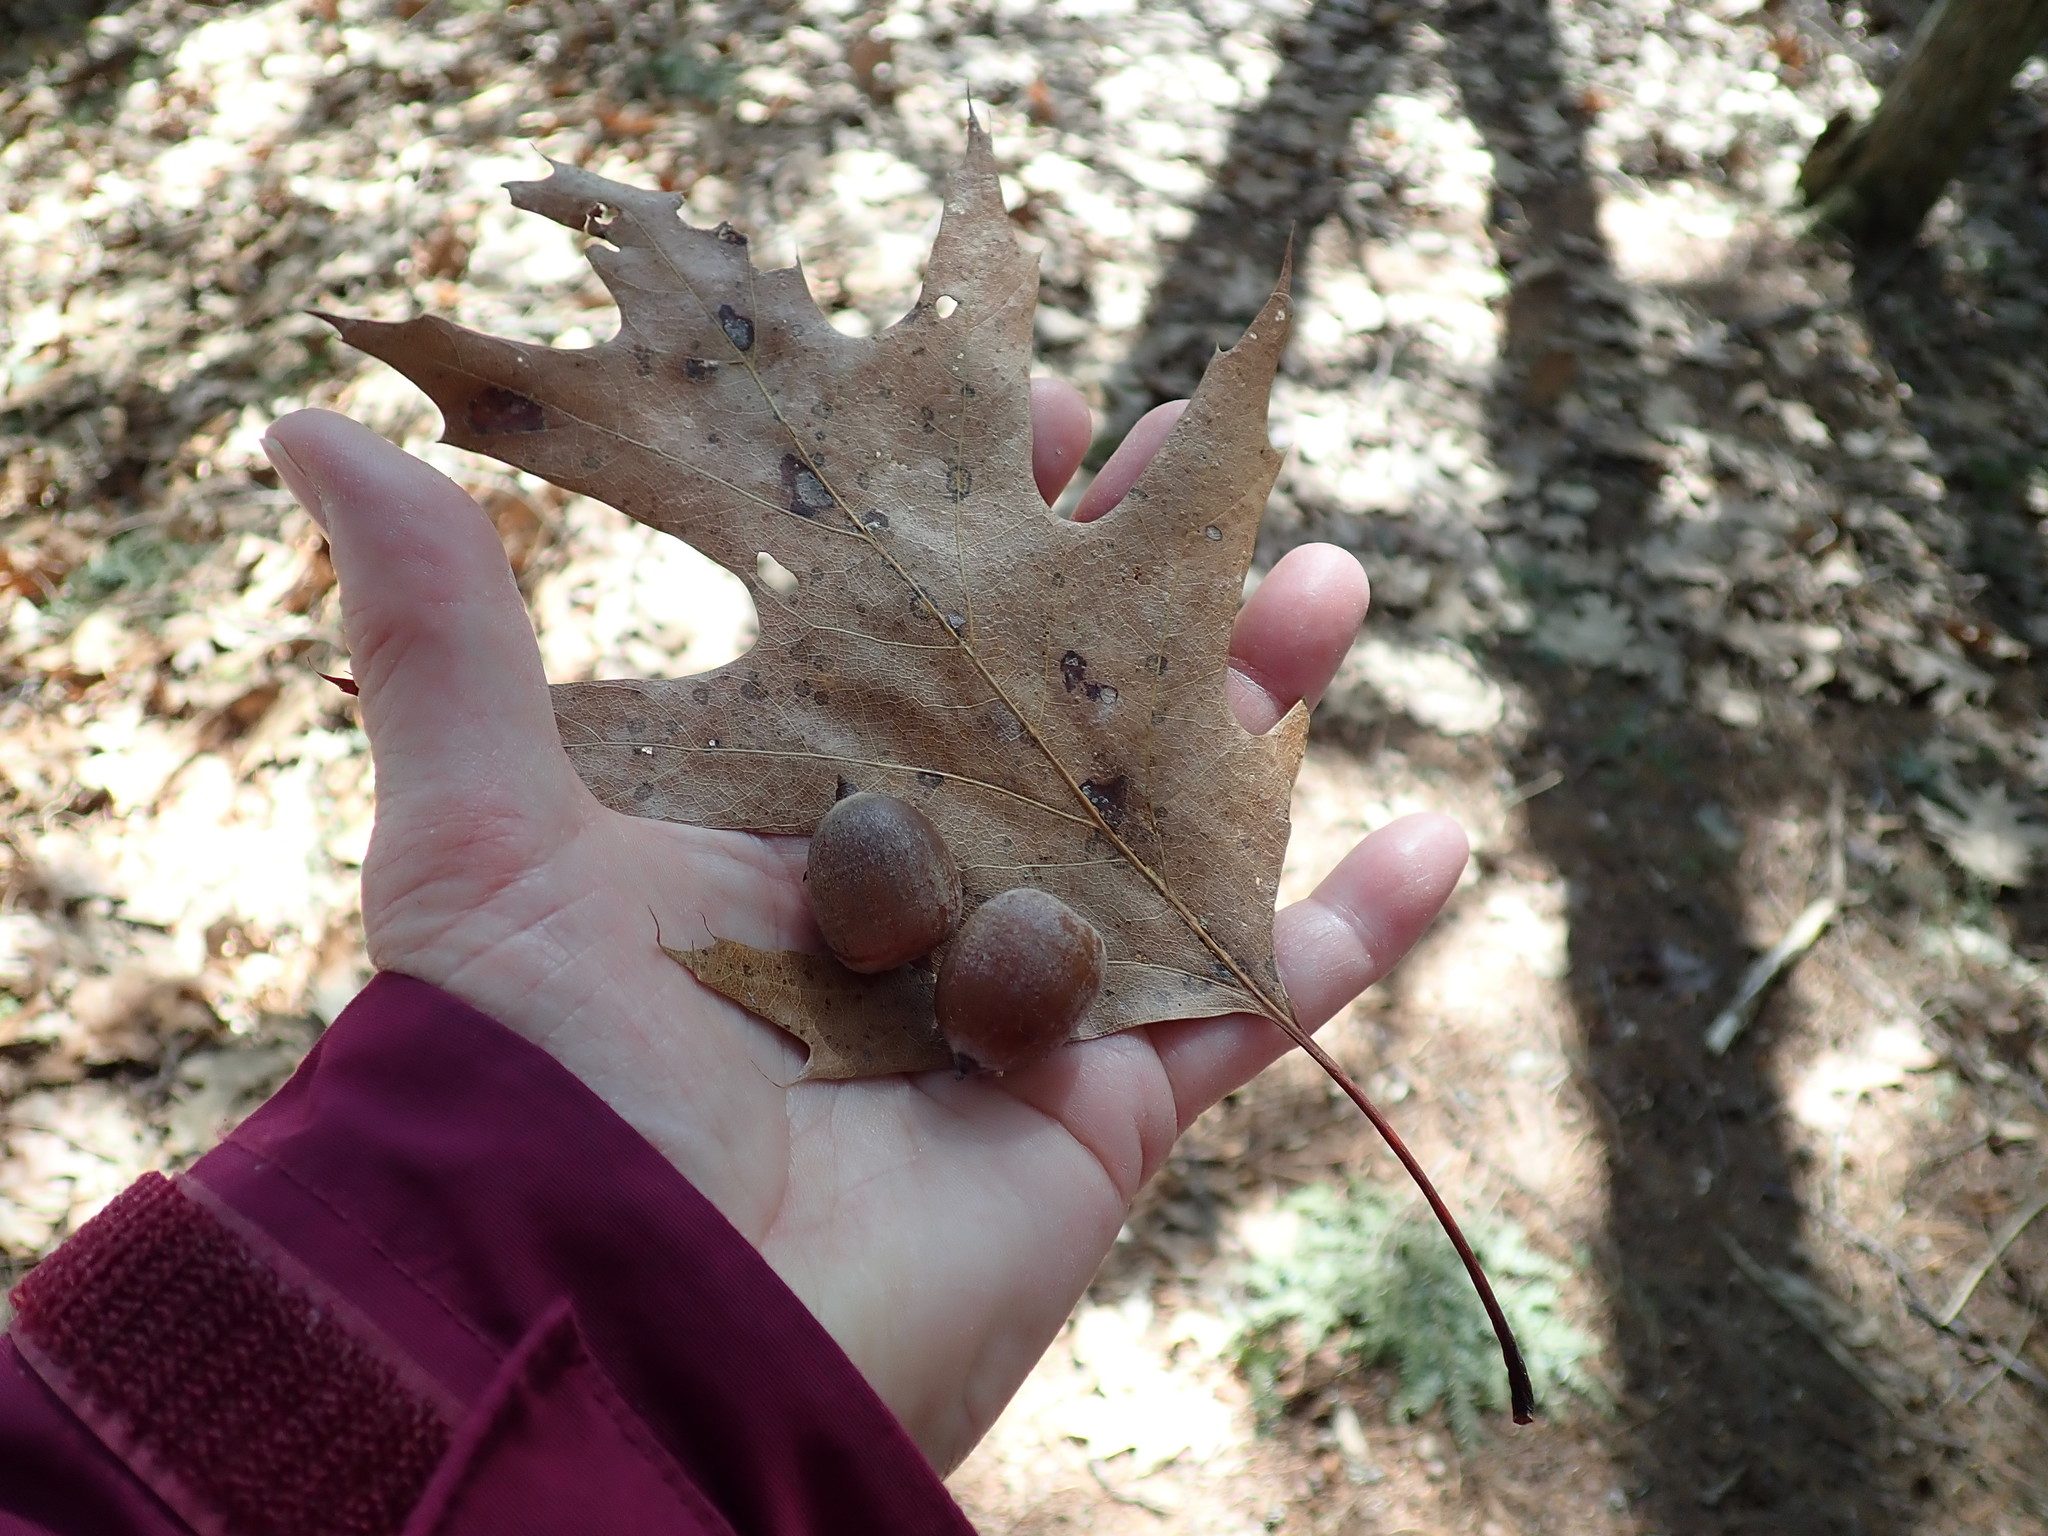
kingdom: Plantae
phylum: Tracheophyta
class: Magnoliopsida
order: Fagales
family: Fagaceae
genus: Quercus
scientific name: Quercus rubra
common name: Red oak
